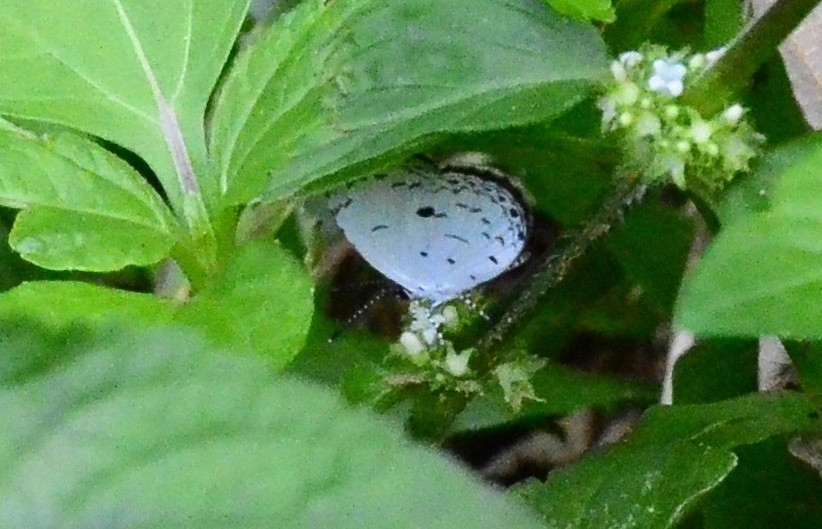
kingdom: Animalia
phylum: Arthropoda
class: Insecta
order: Lepidoptera
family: Lycaenidae
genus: Neopithecops
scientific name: Neopithecops zalmora
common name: Quaker
